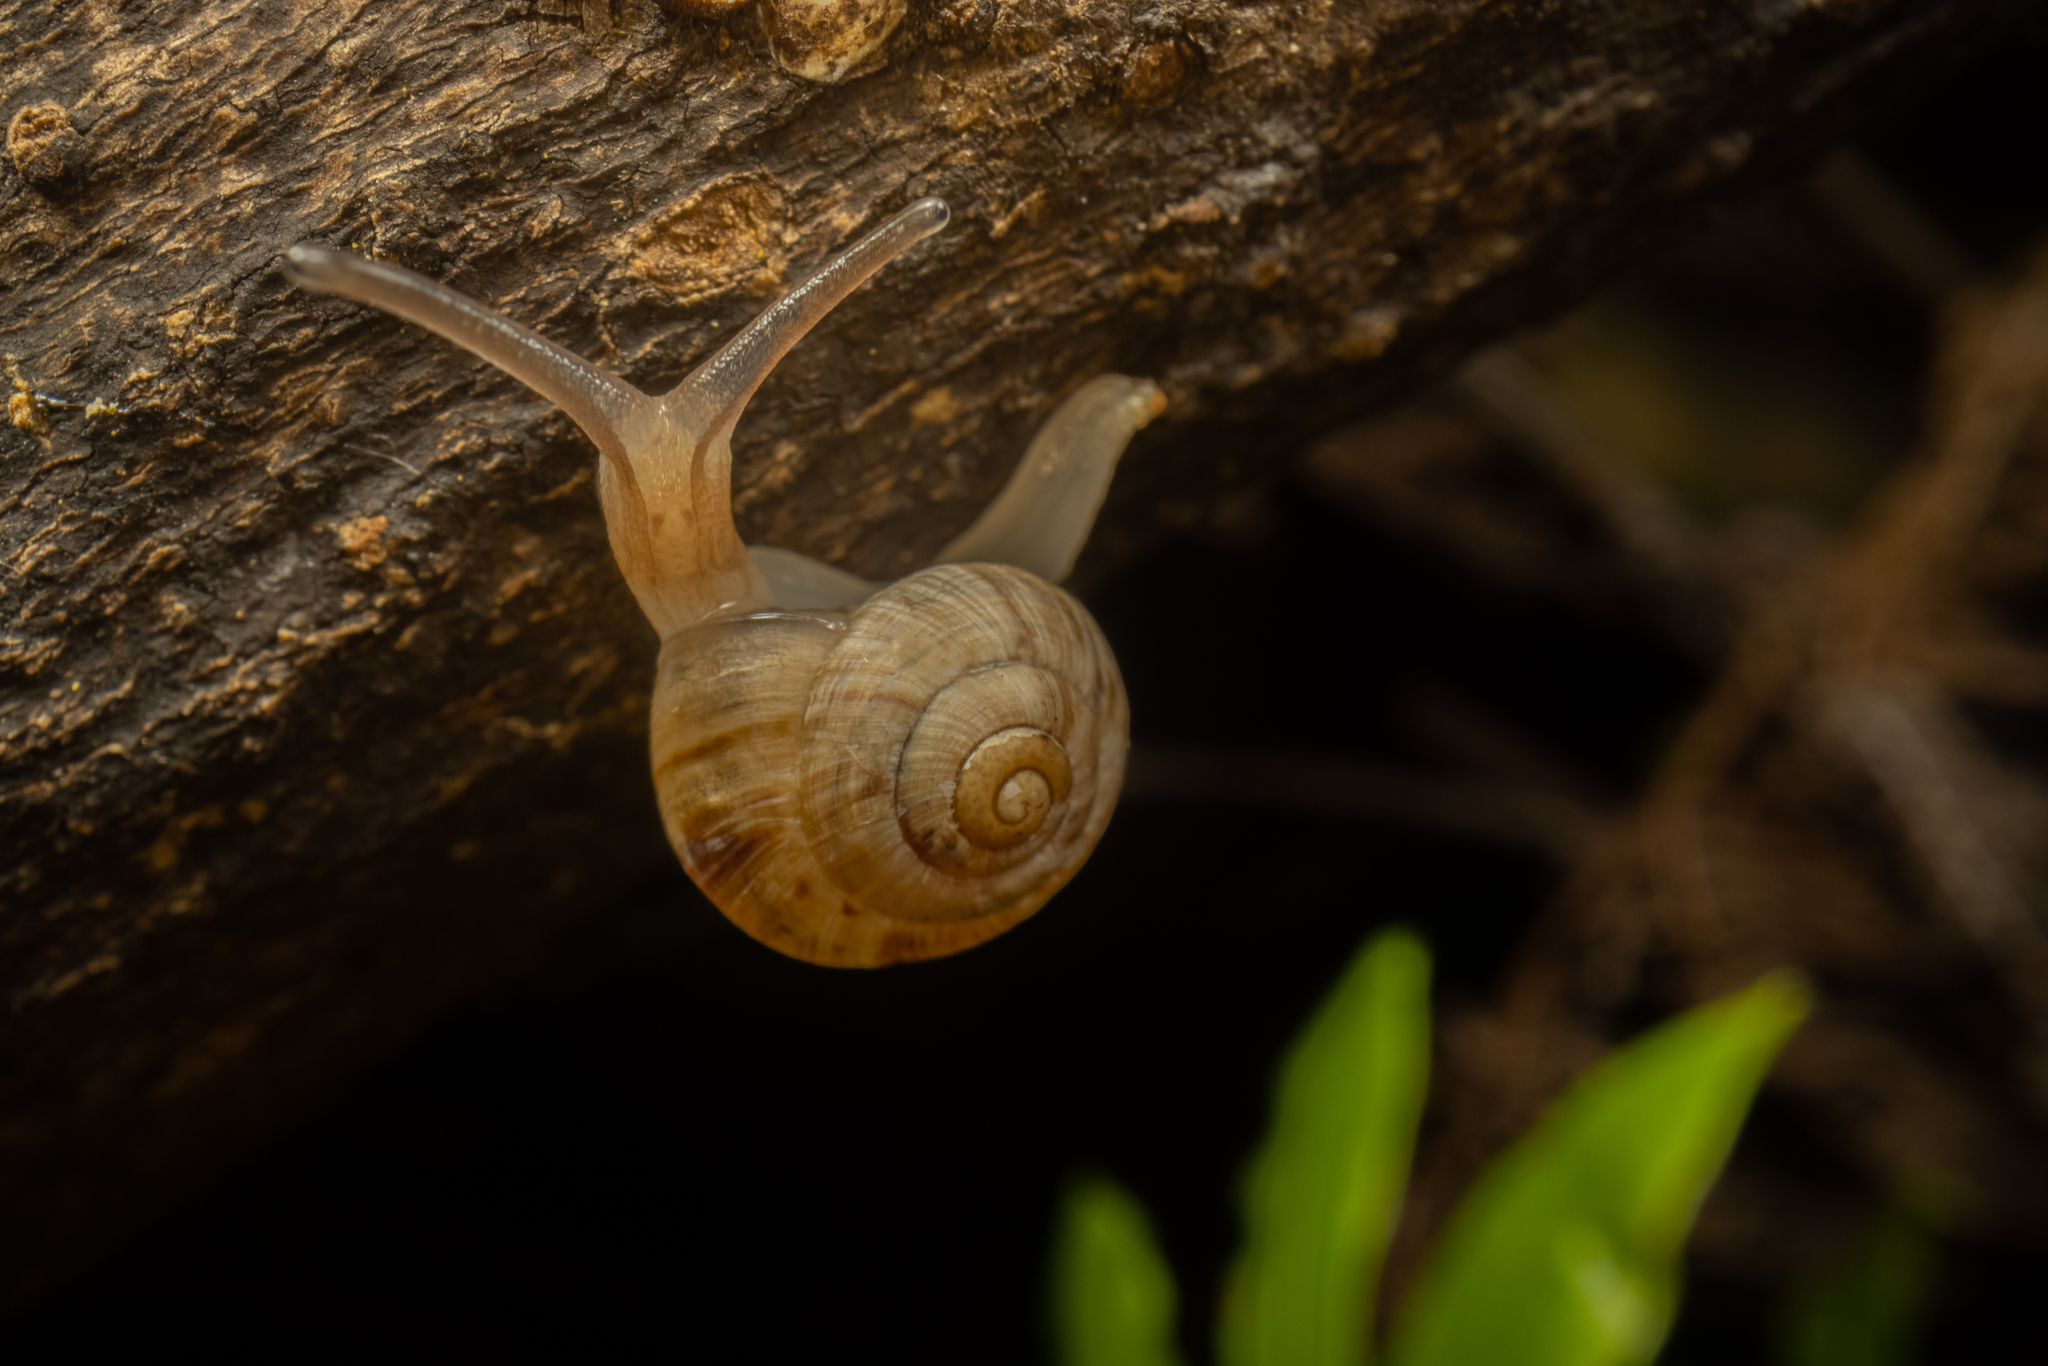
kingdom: Animalia
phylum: Mollusca
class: Gastropoda
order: Stylommatophora
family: Charopidae
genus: Serpho
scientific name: Serpho
